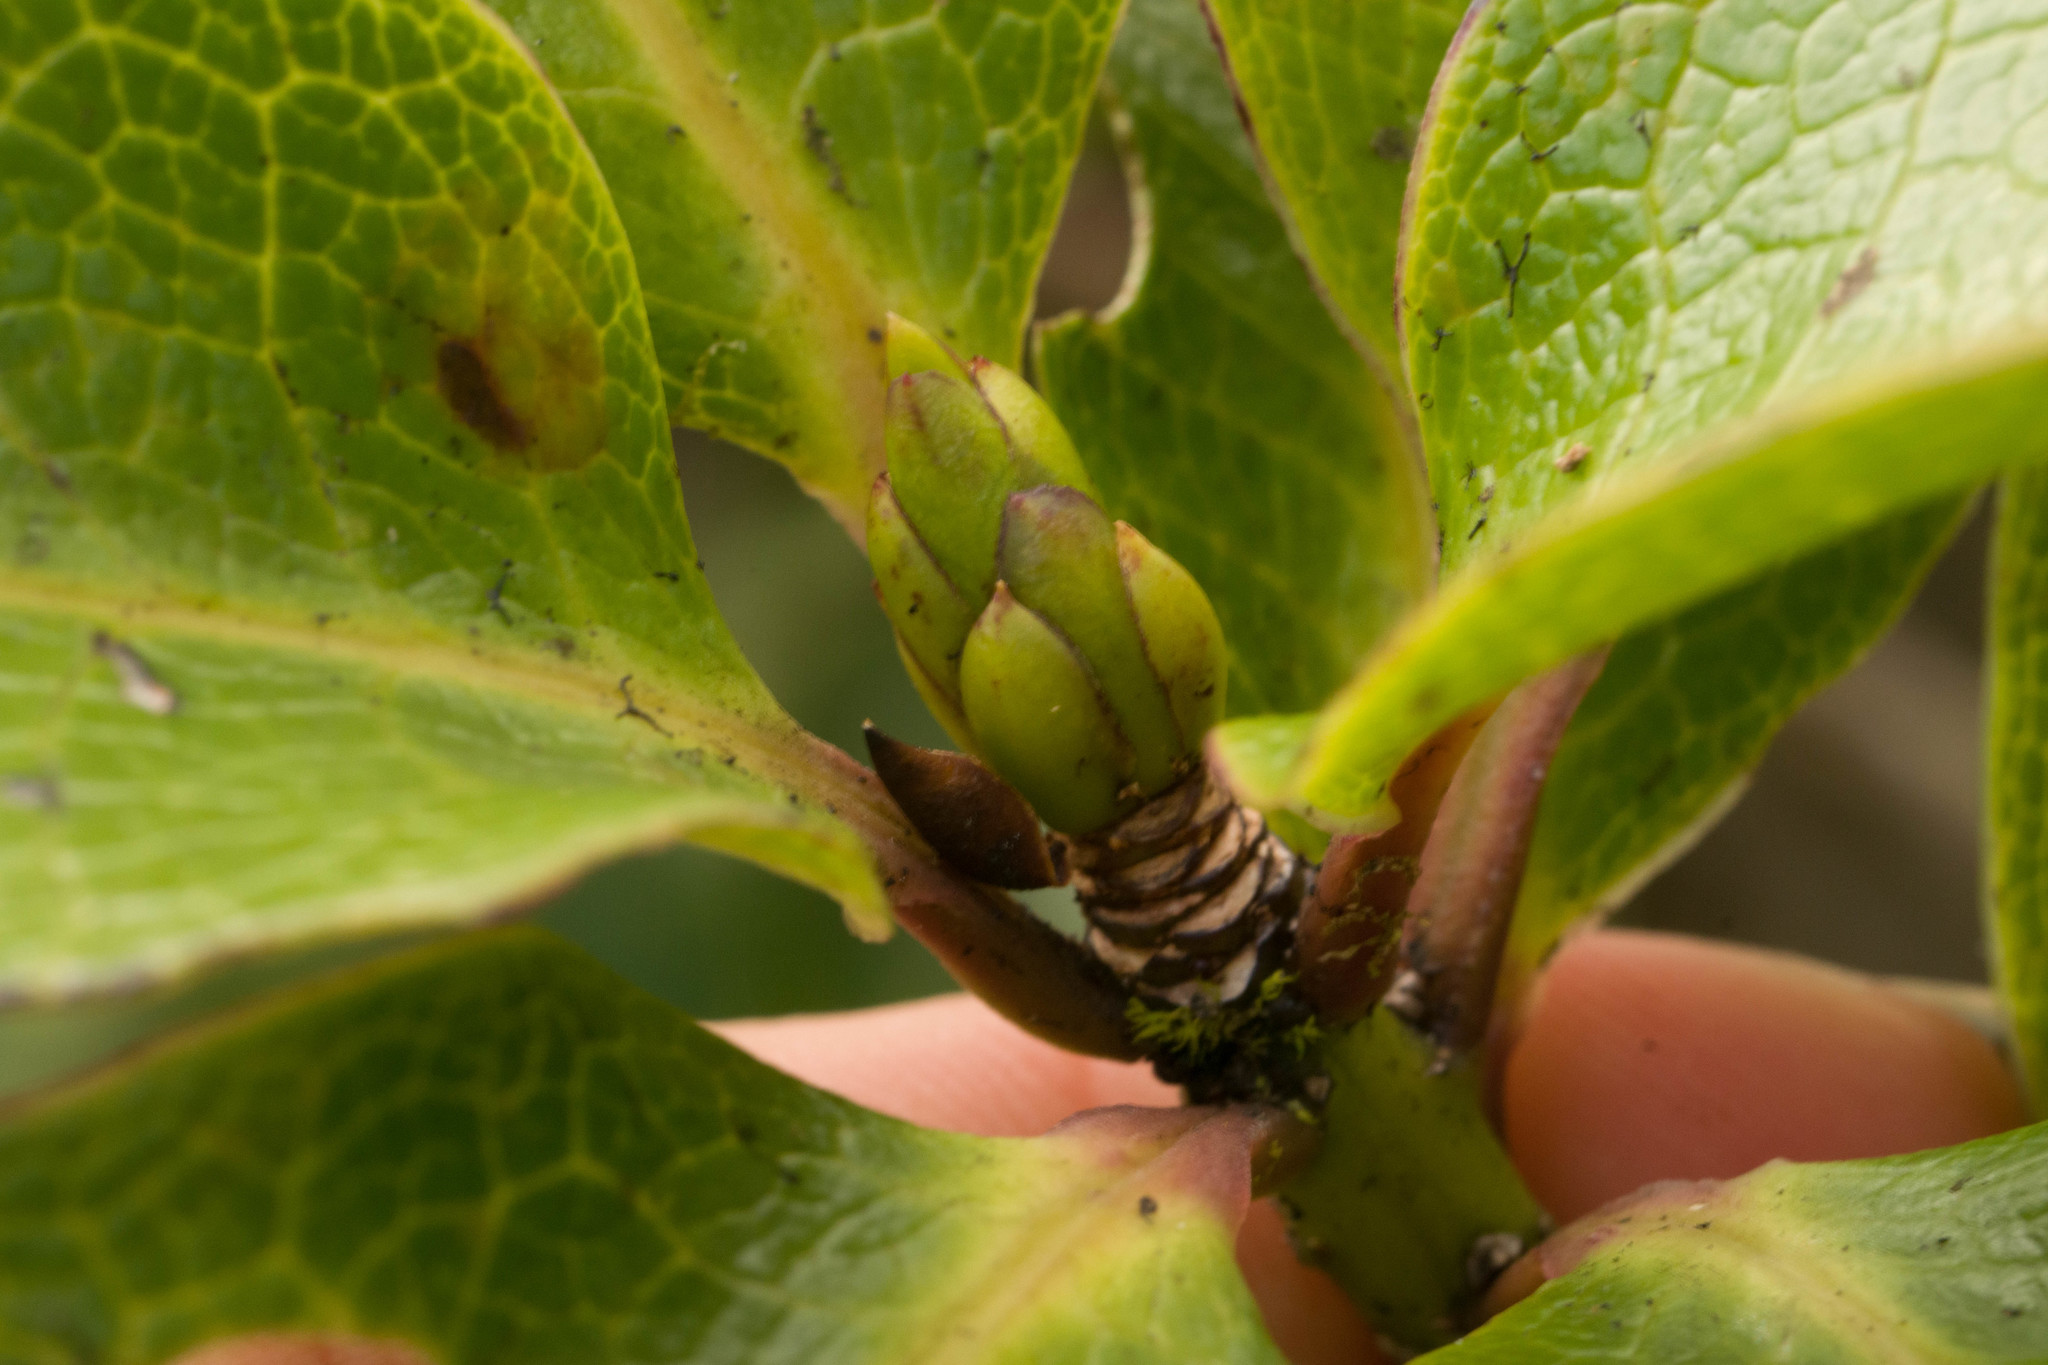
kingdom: Plantae
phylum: Tracheophyta
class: Magnoliopsida
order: Aquifoliales
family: Aquifoliaceae
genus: Ilex
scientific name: Ilex anomala
